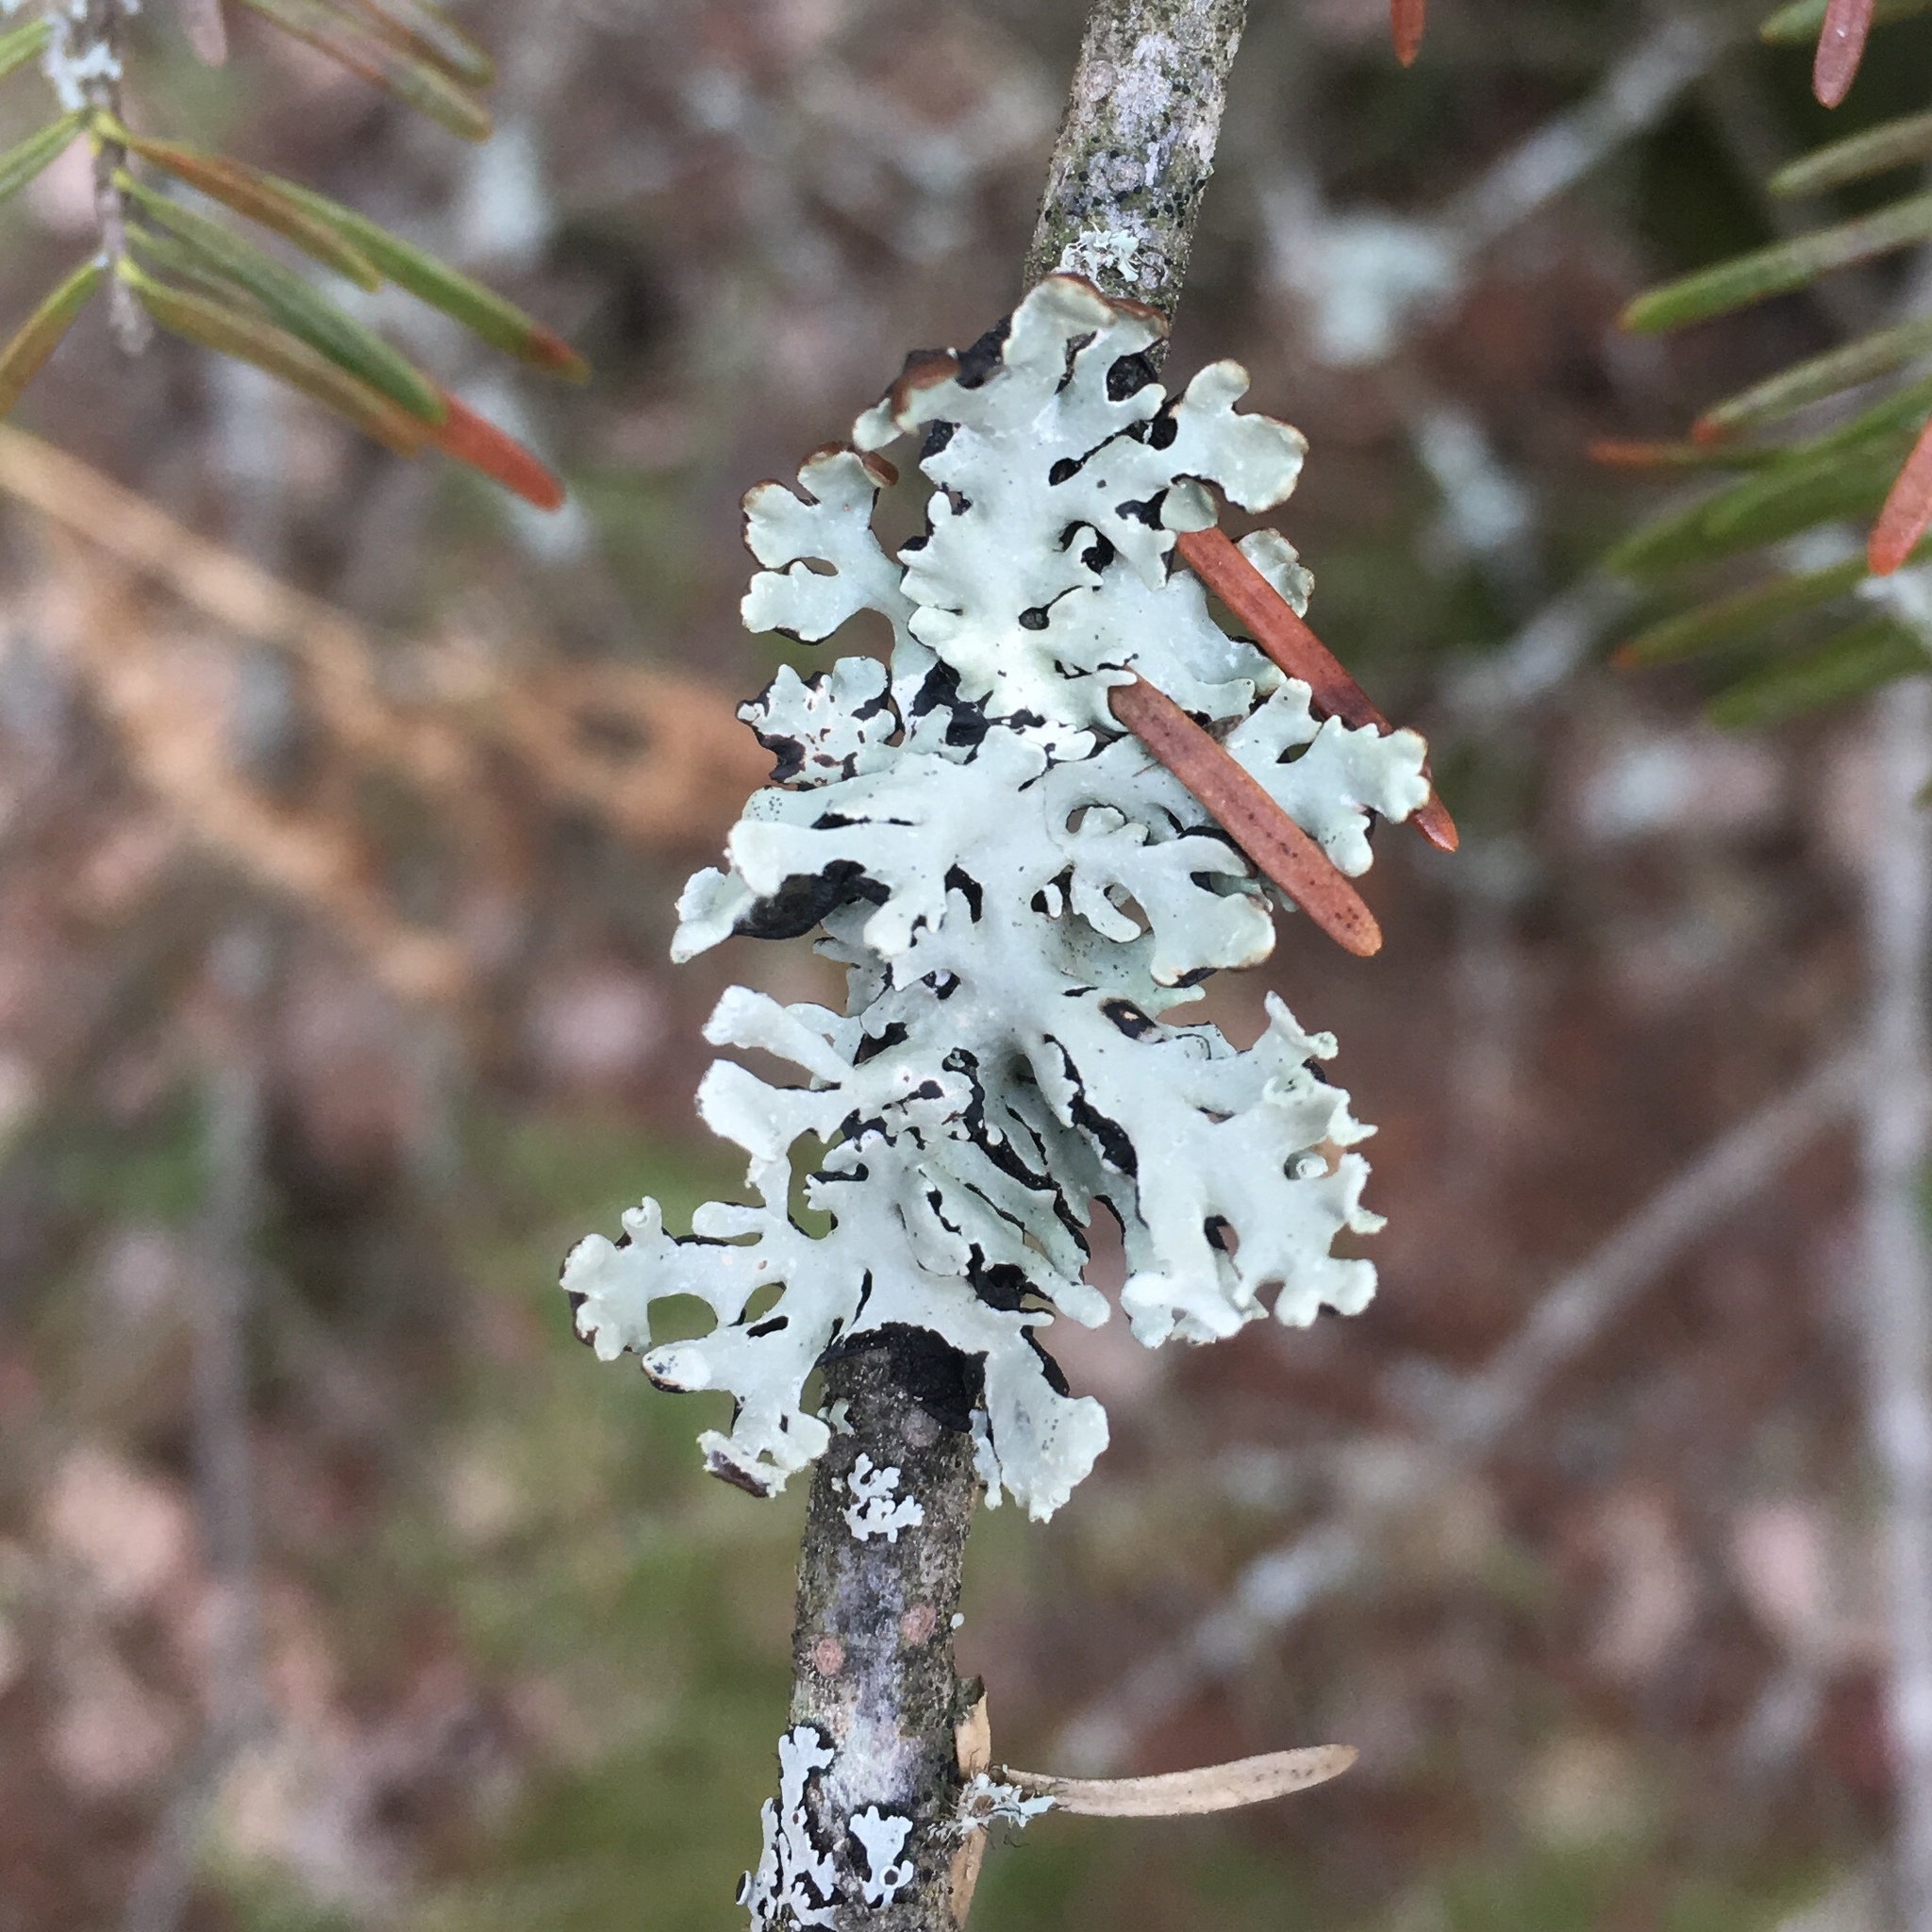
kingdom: Fungi
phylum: Ascomycota
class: Lecanoromycetes
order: Lecanorales
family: Parmeliaceae
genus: Hypogymnia
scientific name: Hypogymnia physodes
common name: Dark crottle
